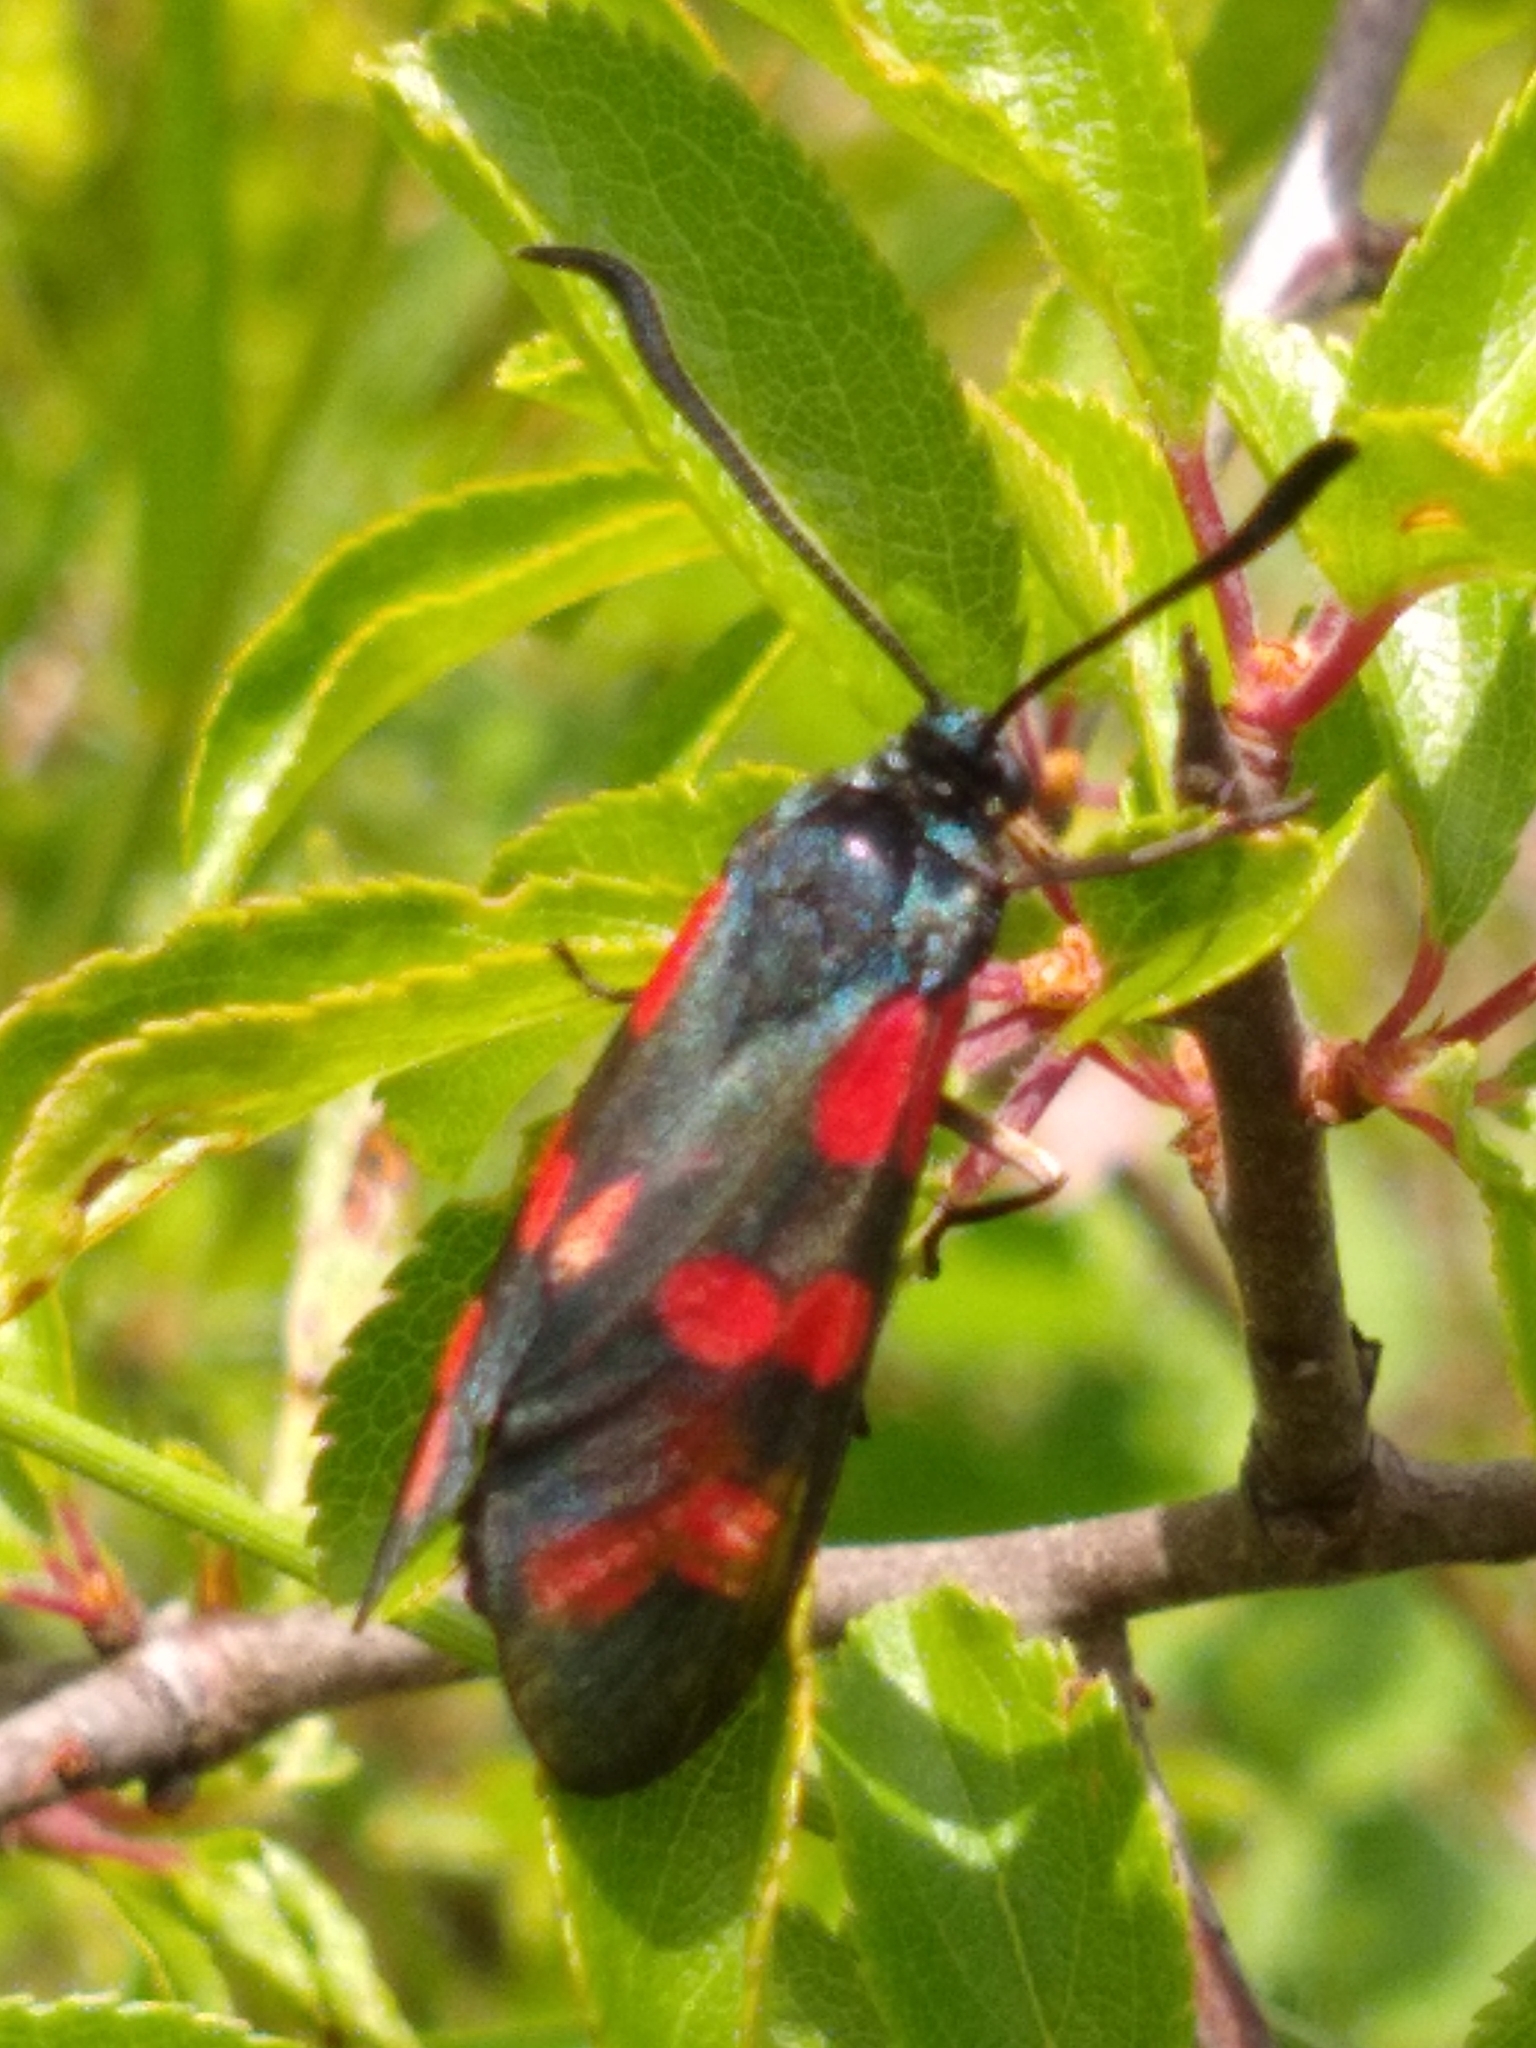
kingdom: Animalia
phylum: Arthropoda
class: Insecta
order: Lepidoptera
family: Zygaenidae
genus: Zygaena
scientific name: Zygaena filipendulae
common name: Six-spot burnet
